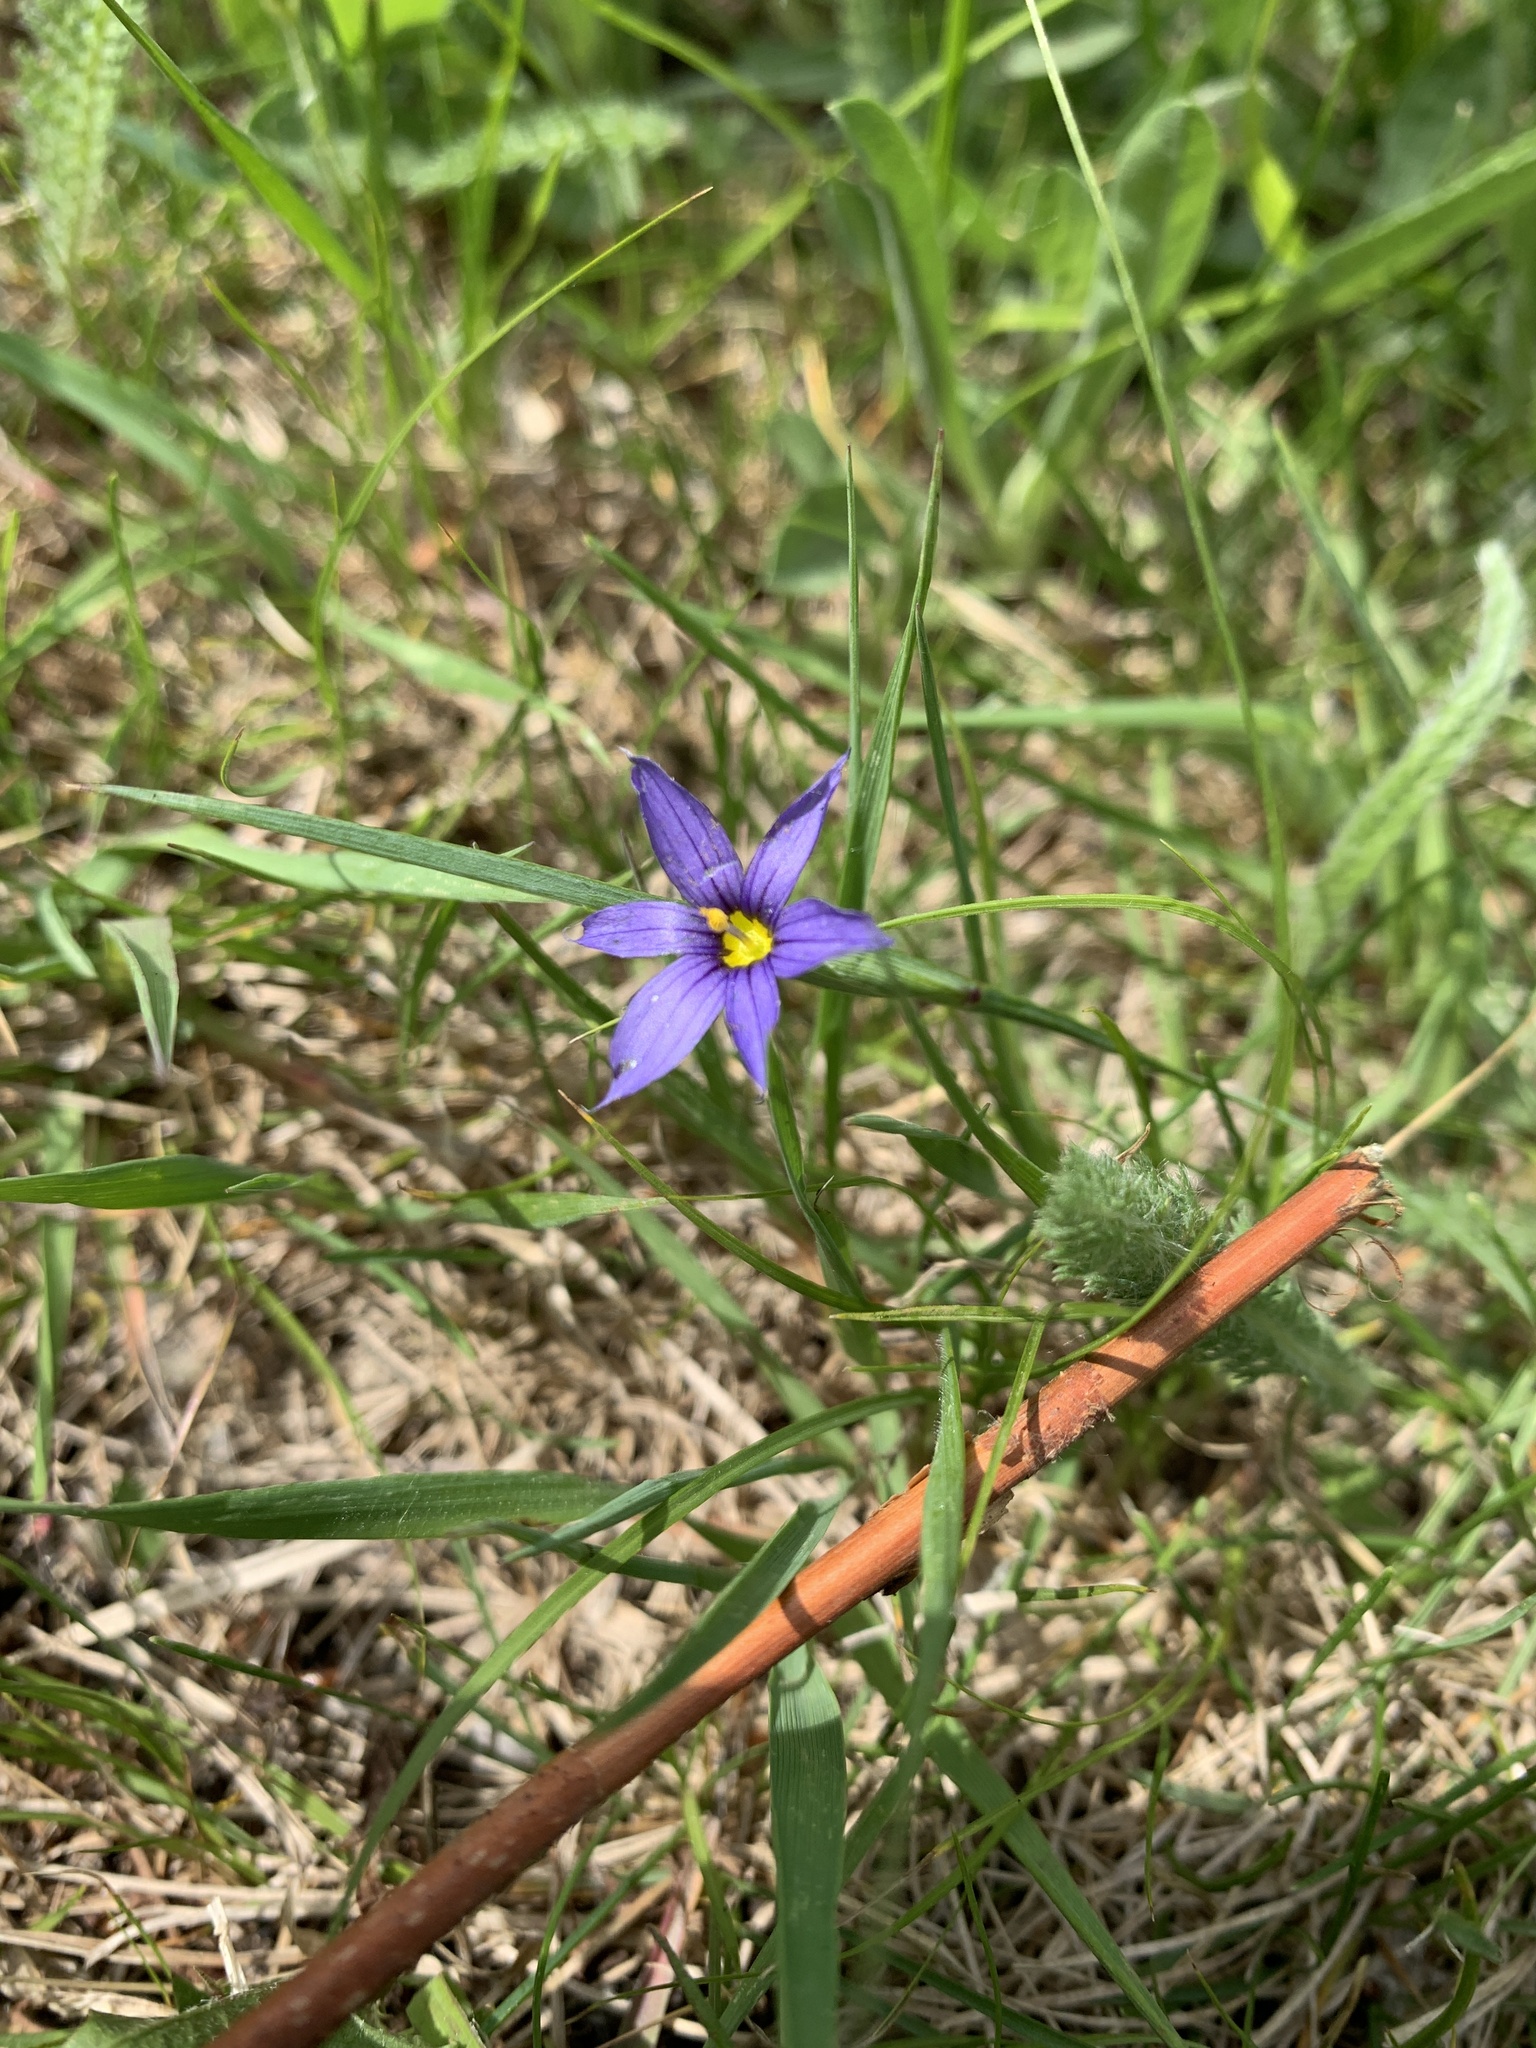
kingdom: Plantae
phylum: Tracheophyta
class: Liliopsida
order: Asparagales
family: Iridaceae
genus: Sisyrinchium
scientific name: Sisyrinchium montanum
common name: American blue-eyed-grass
